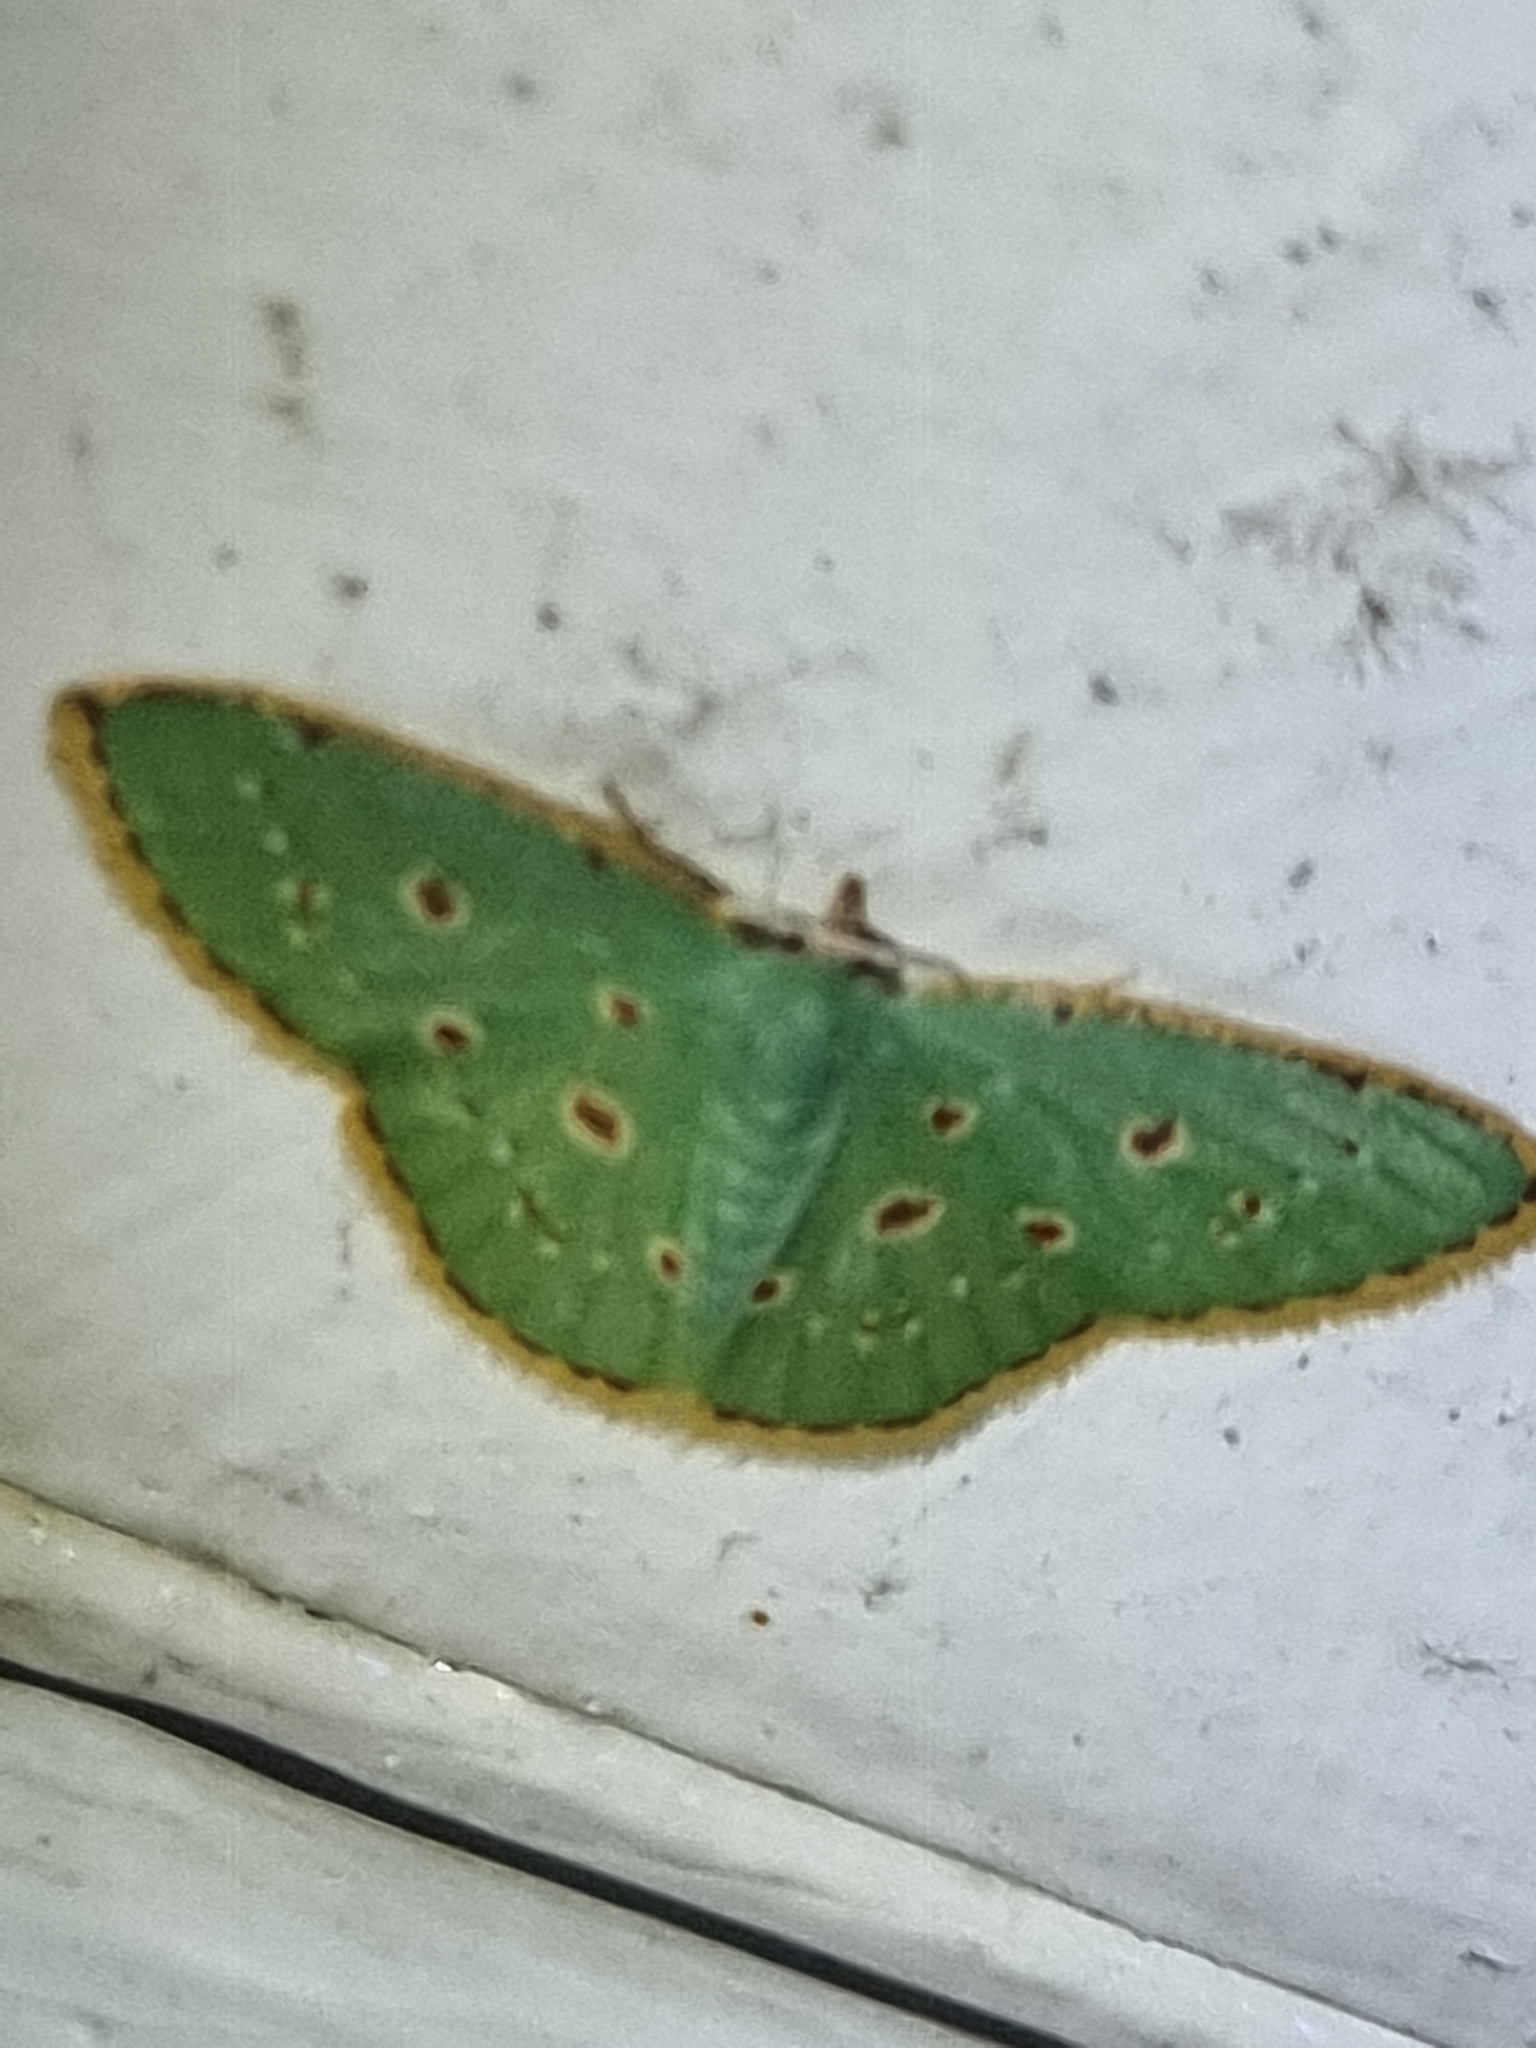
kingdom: Animalia
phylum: Arthropoda
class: Insecta
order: Lepidoptera
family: Geometridae
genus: Comostola
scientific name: Comostola laesaria
